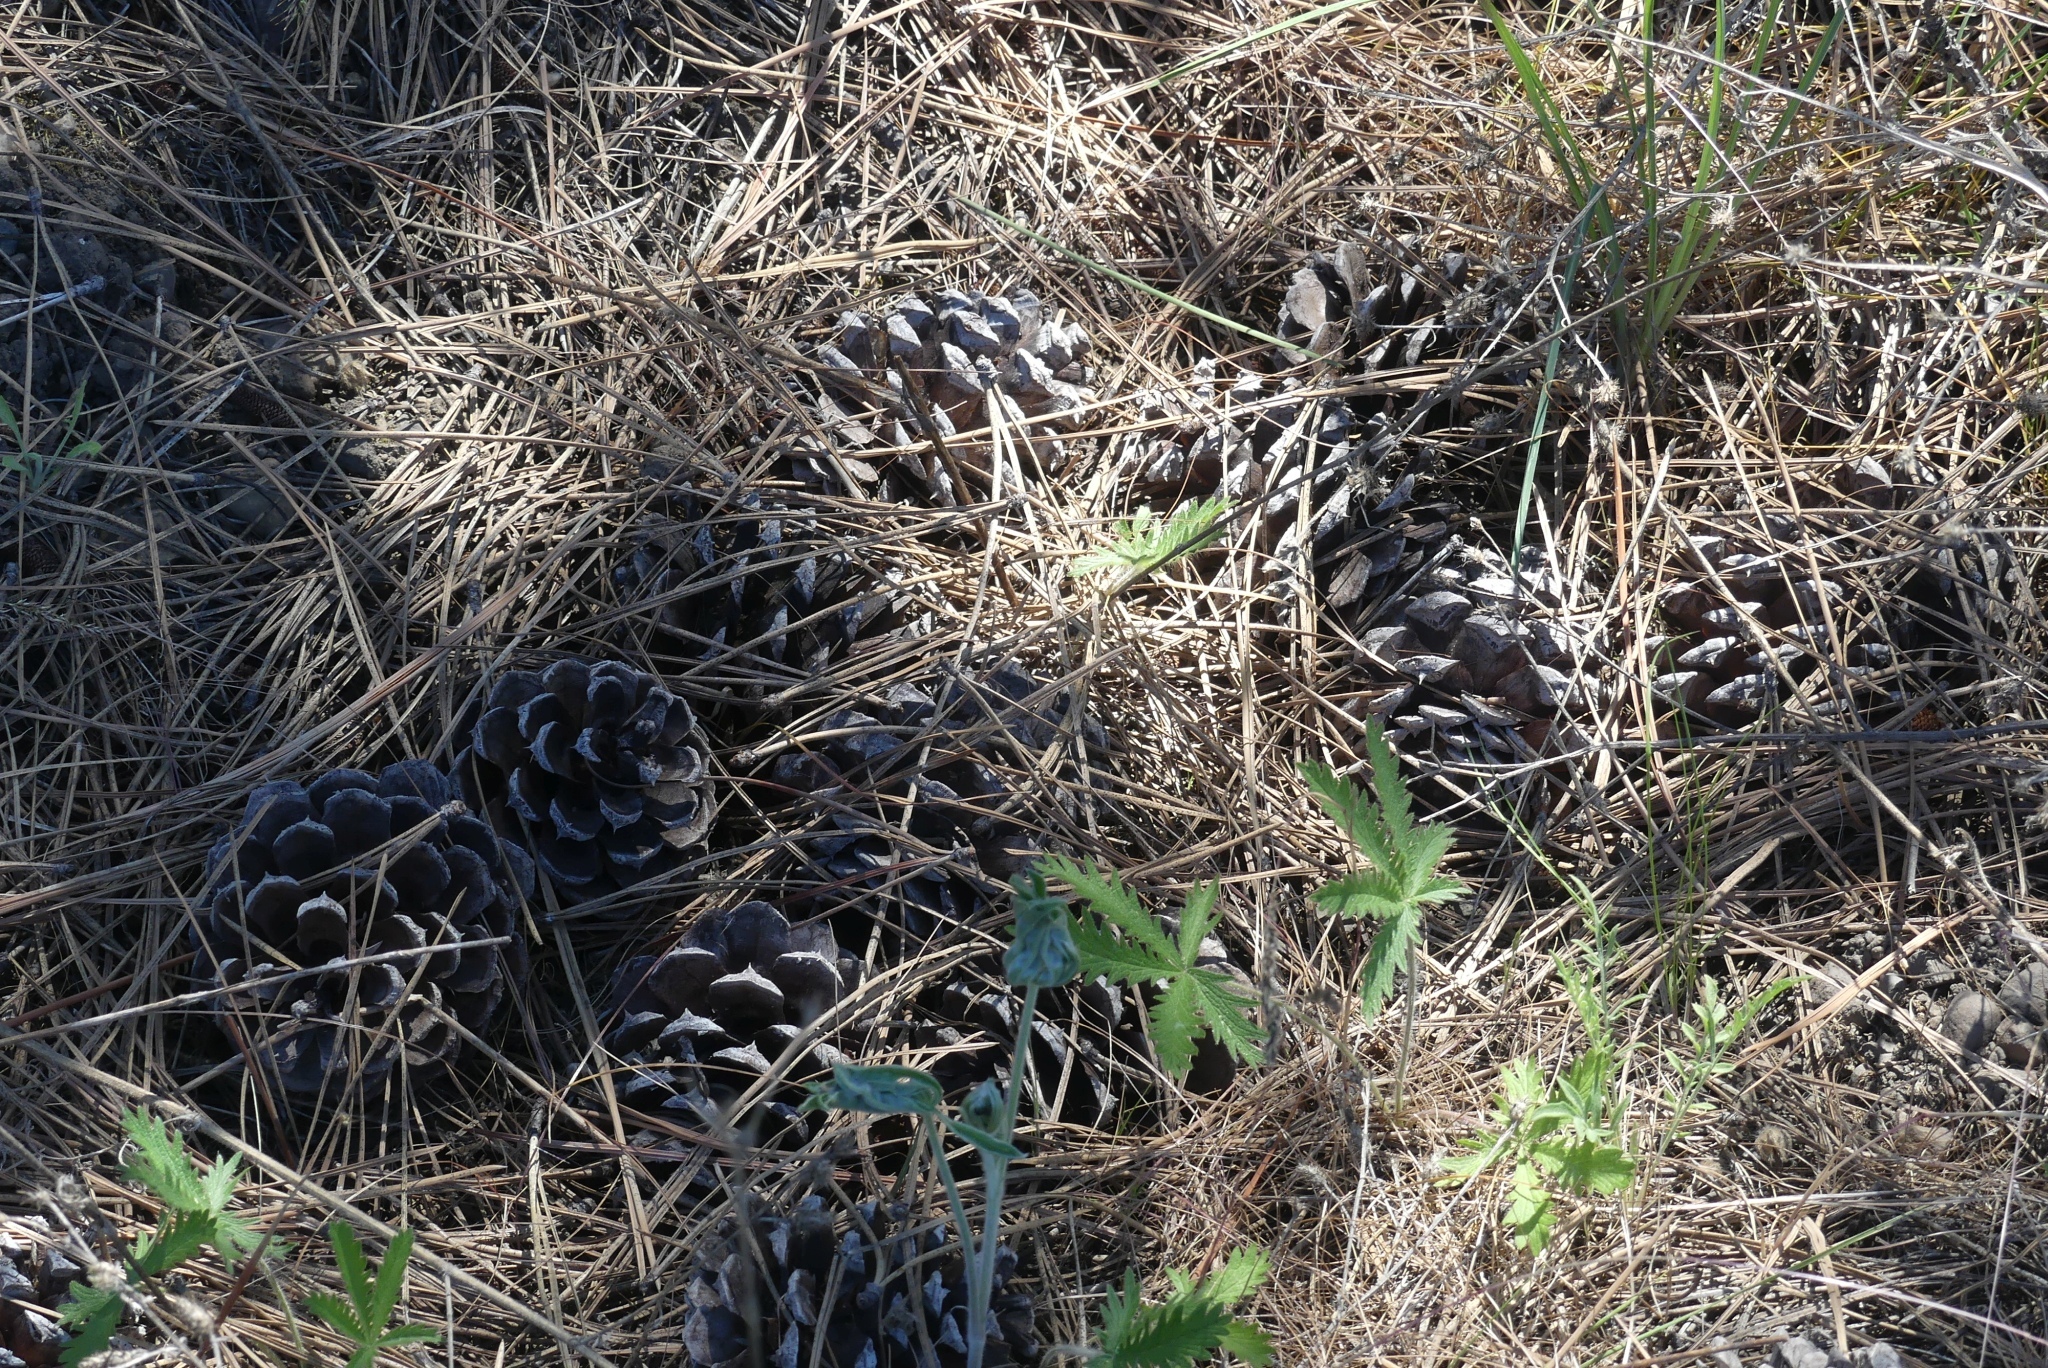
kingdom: Plantae
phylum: Tracheophyta
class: Pinopsida
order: Pinales
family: Pinaceae
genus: Pinus
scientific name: Pinus ponderosa
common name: Western yellow-pine
